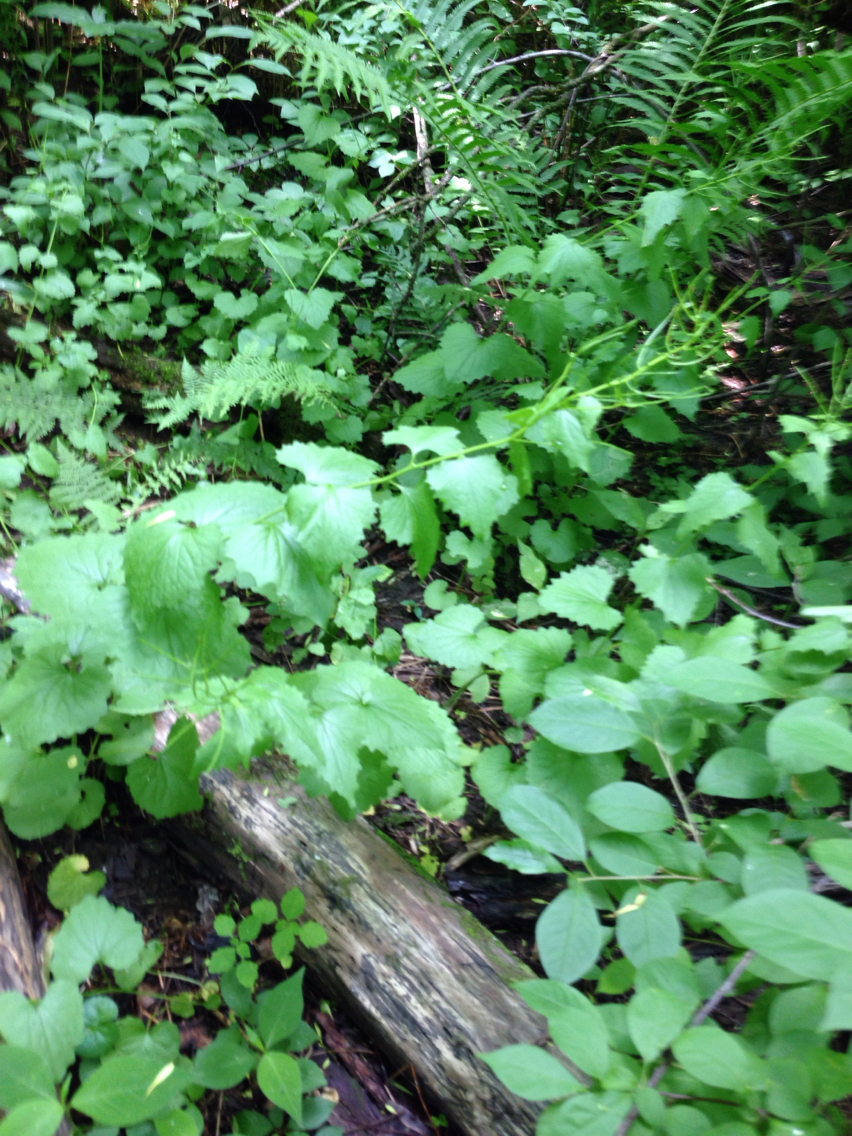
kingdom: Plantae
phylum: Tracheophyta
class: Magnoliopsida
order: Brassicales
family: Brassicaceae
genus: Alliaria
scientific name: Alliaria petiolata
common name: Garlic mustard
